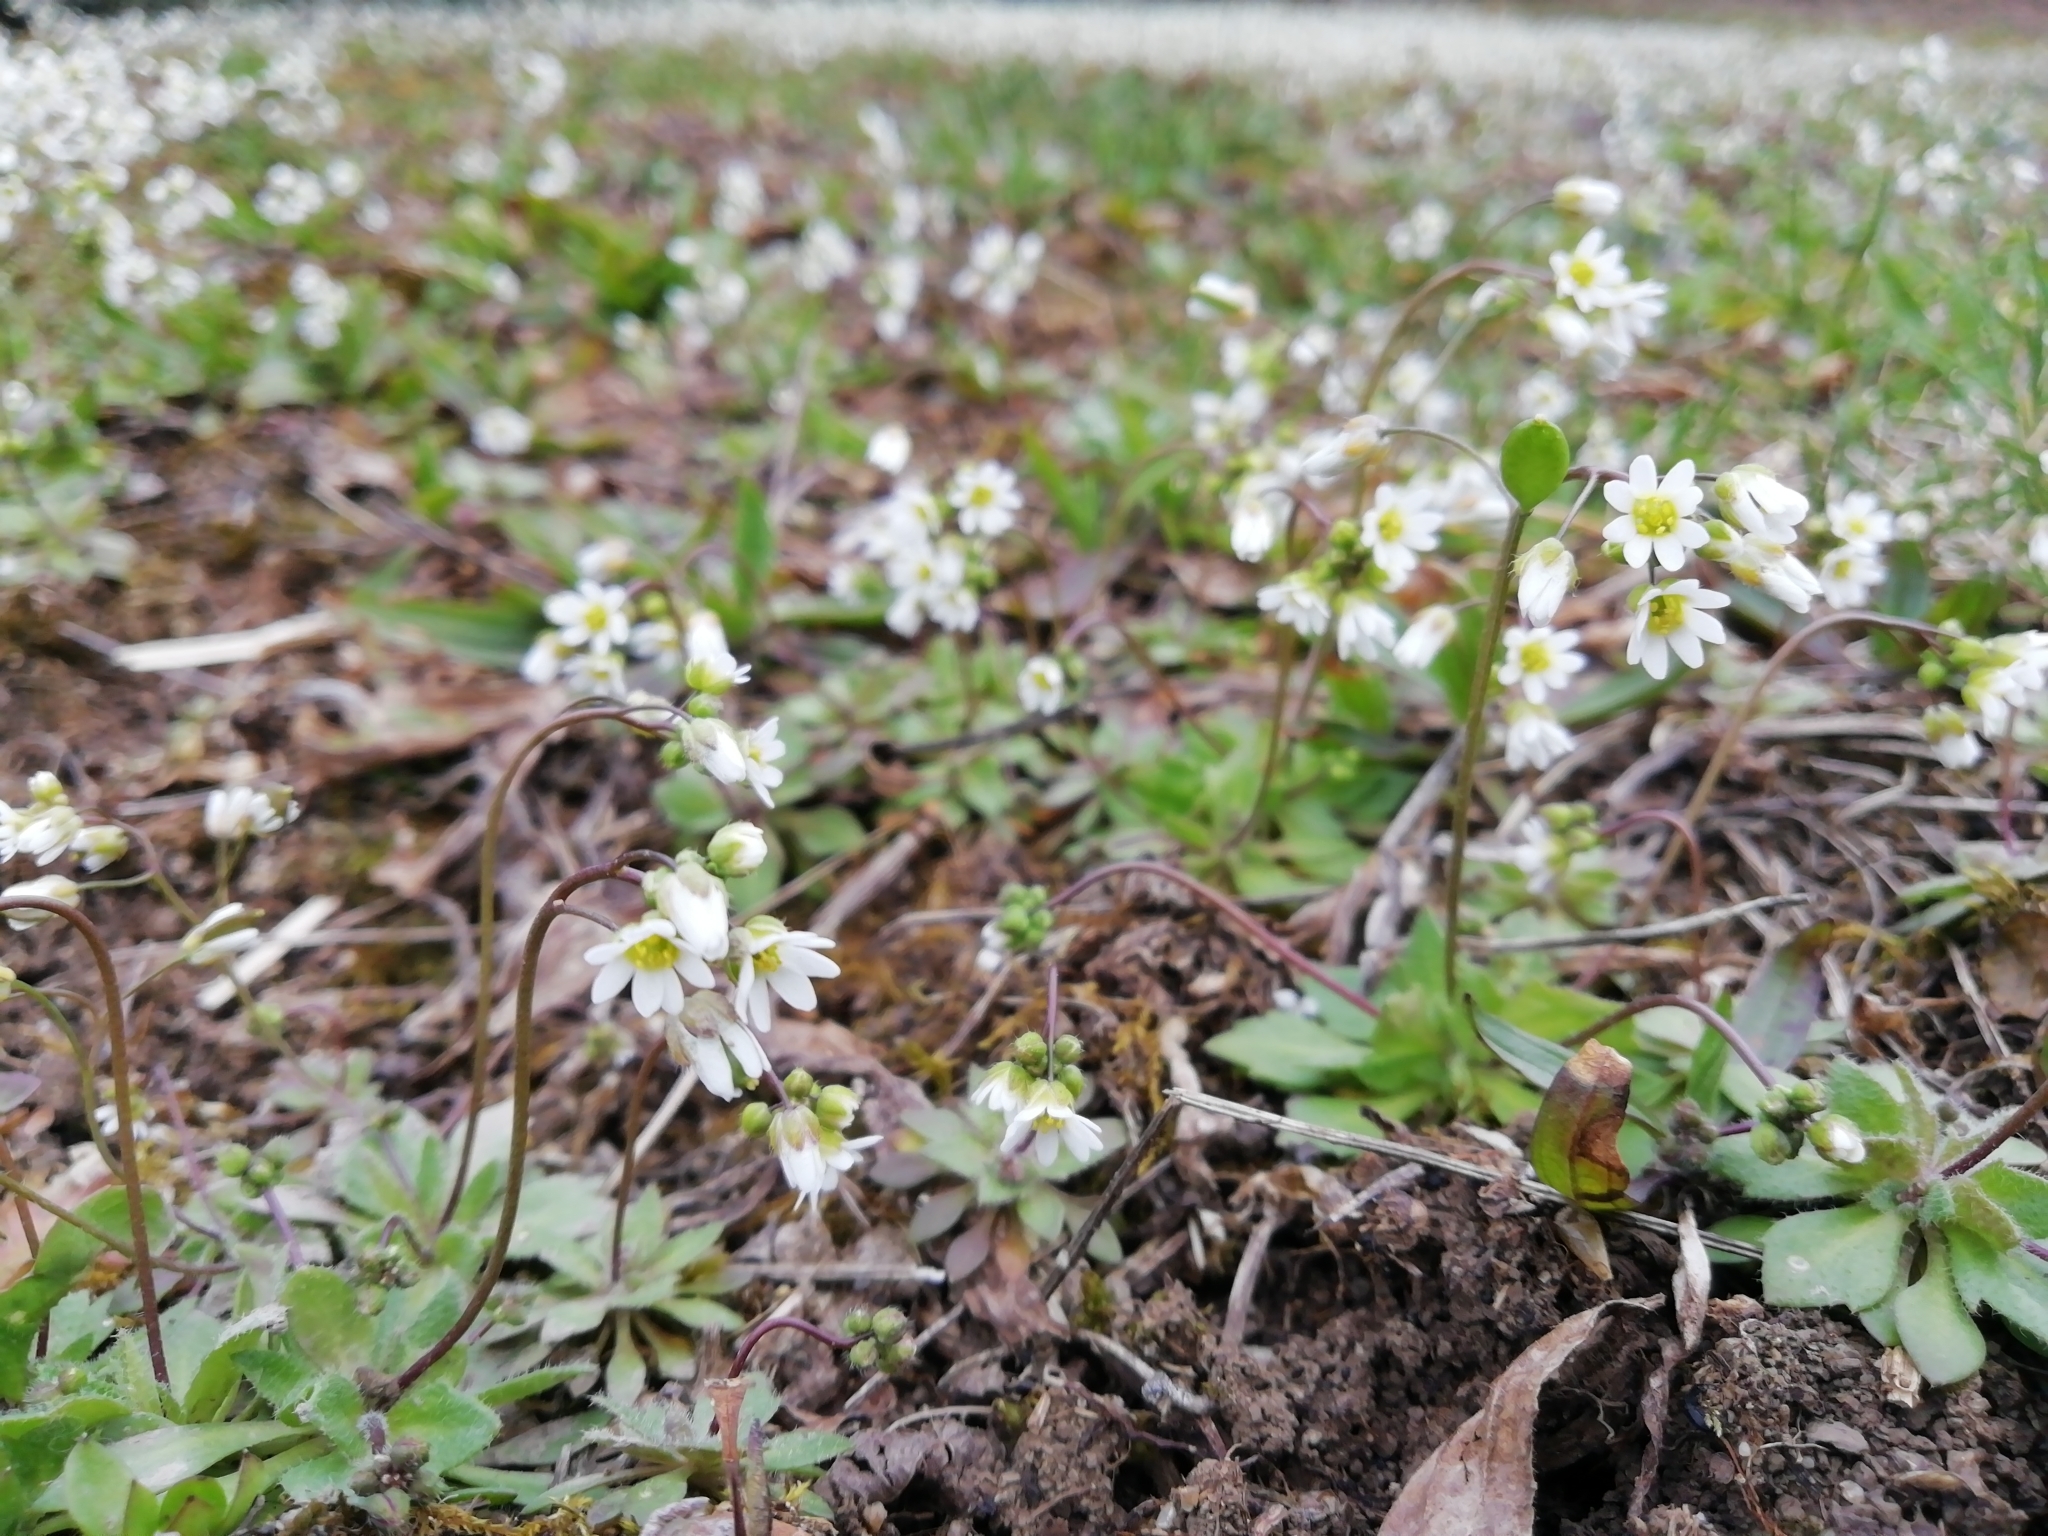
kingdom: Plantae
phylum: Tracheophyta
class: Magnoliopsida
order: Brassicales
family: Brassicaceae
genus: Draba
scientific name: Draba verna
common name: Spring draba
